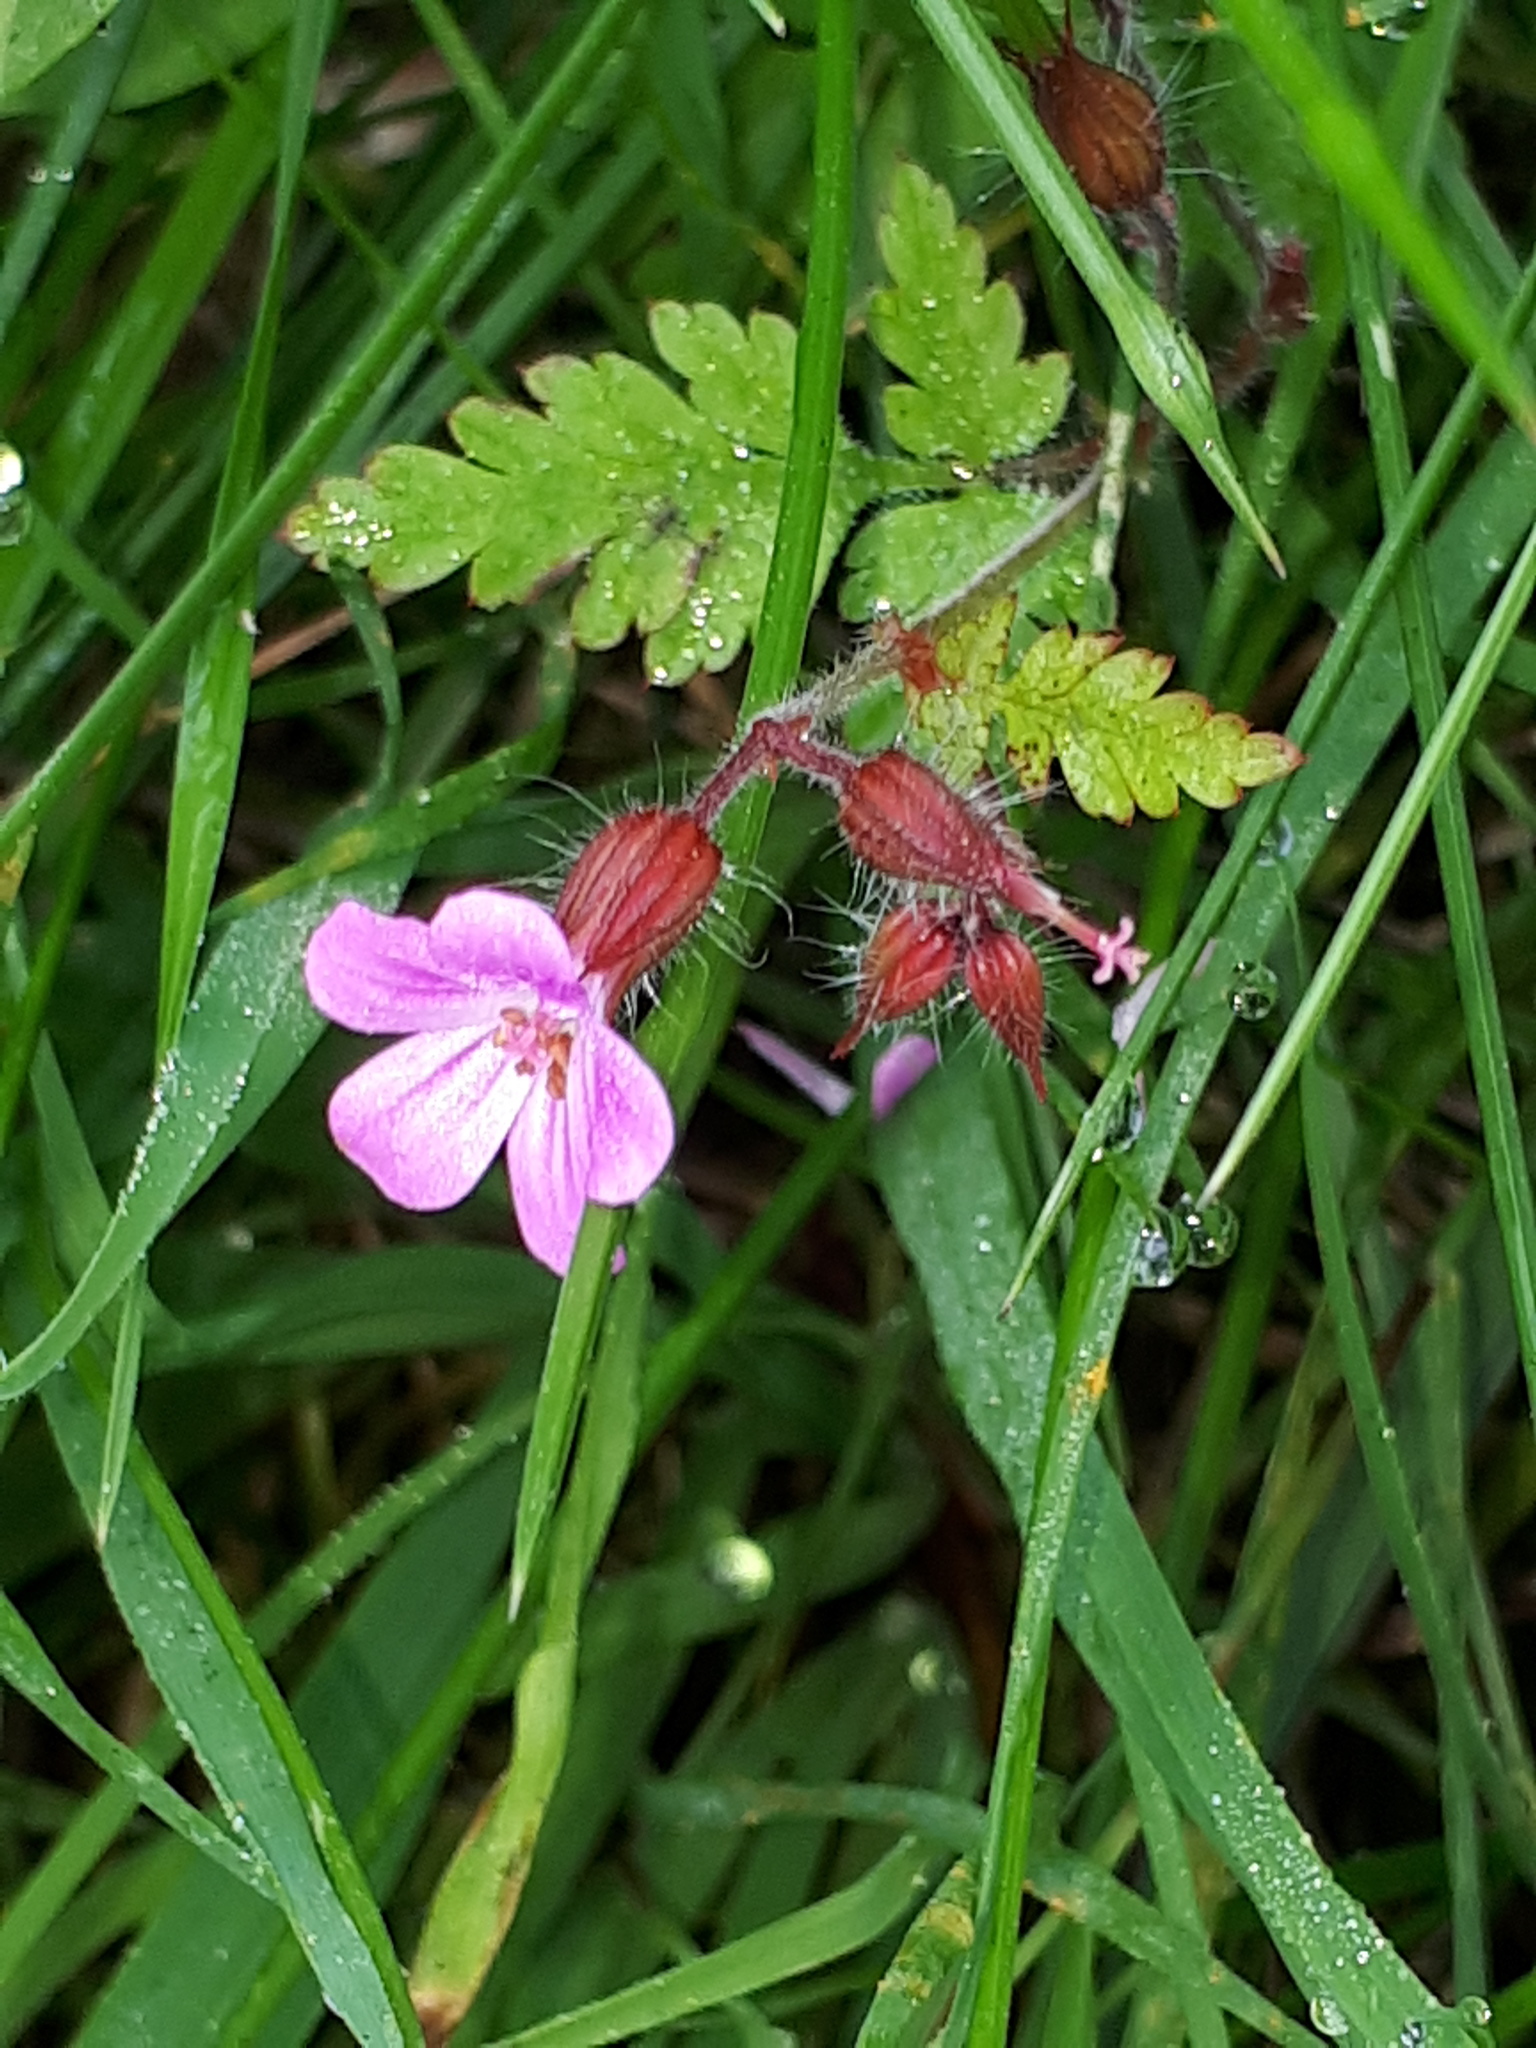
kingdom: Plantae
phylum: Tracheophyta
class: Magnoliopsida
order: Geraniales
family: Geraniaceae
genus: Geranium
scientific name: Geranium robertianum
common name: Herb-robert
